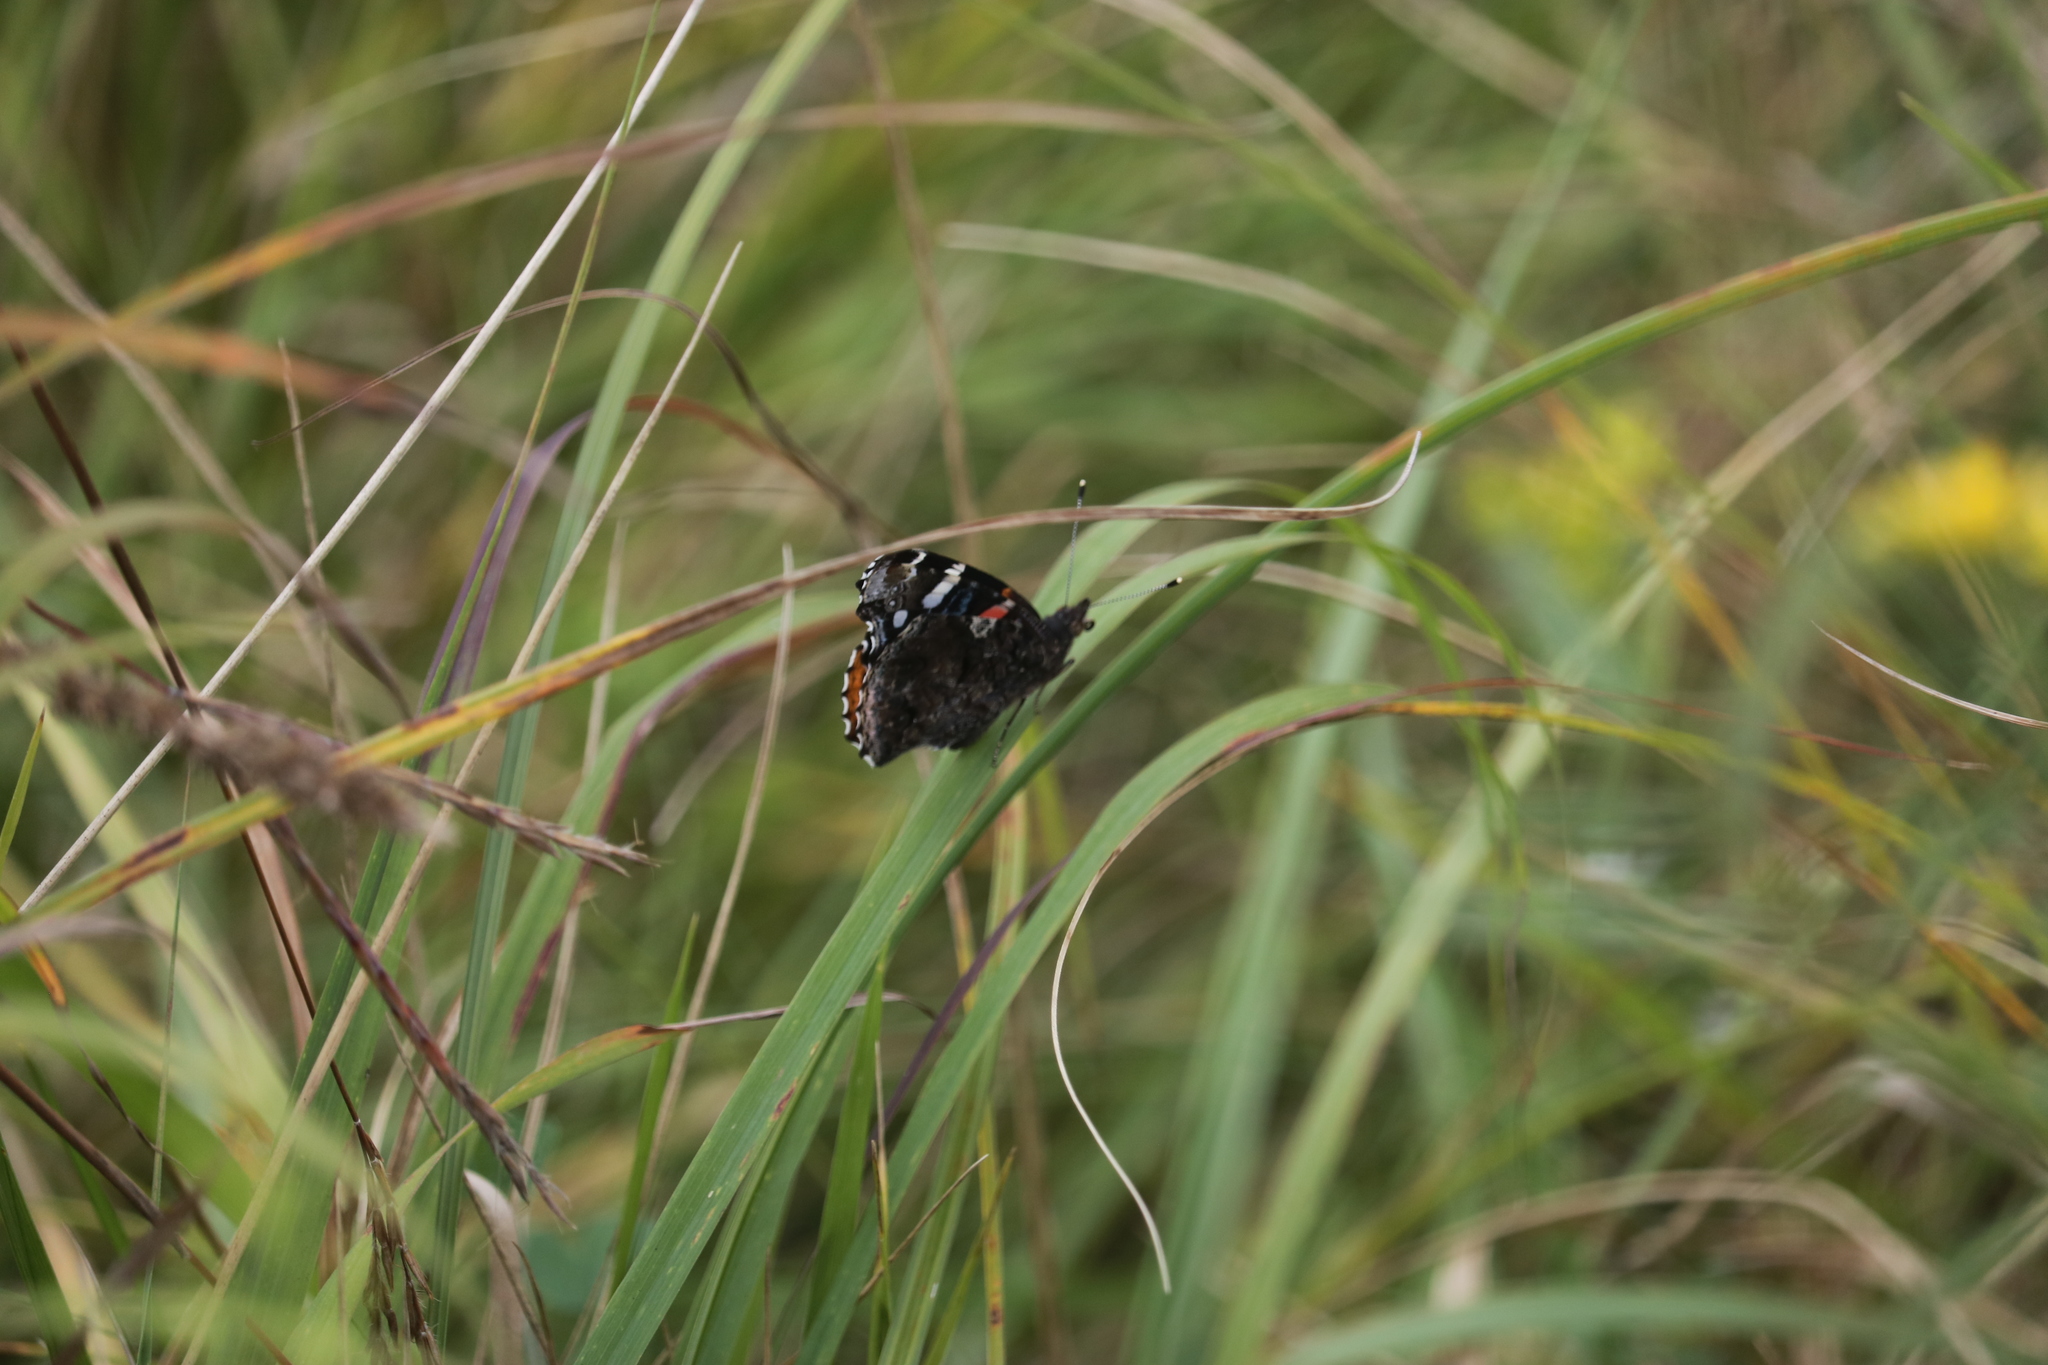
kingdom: Animalia
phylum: Arthropoda
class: Insecta
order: Lepidoptera
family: Nymphalidae
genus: Vanessa
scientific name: Vanessa atalanta
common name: Red admiral
